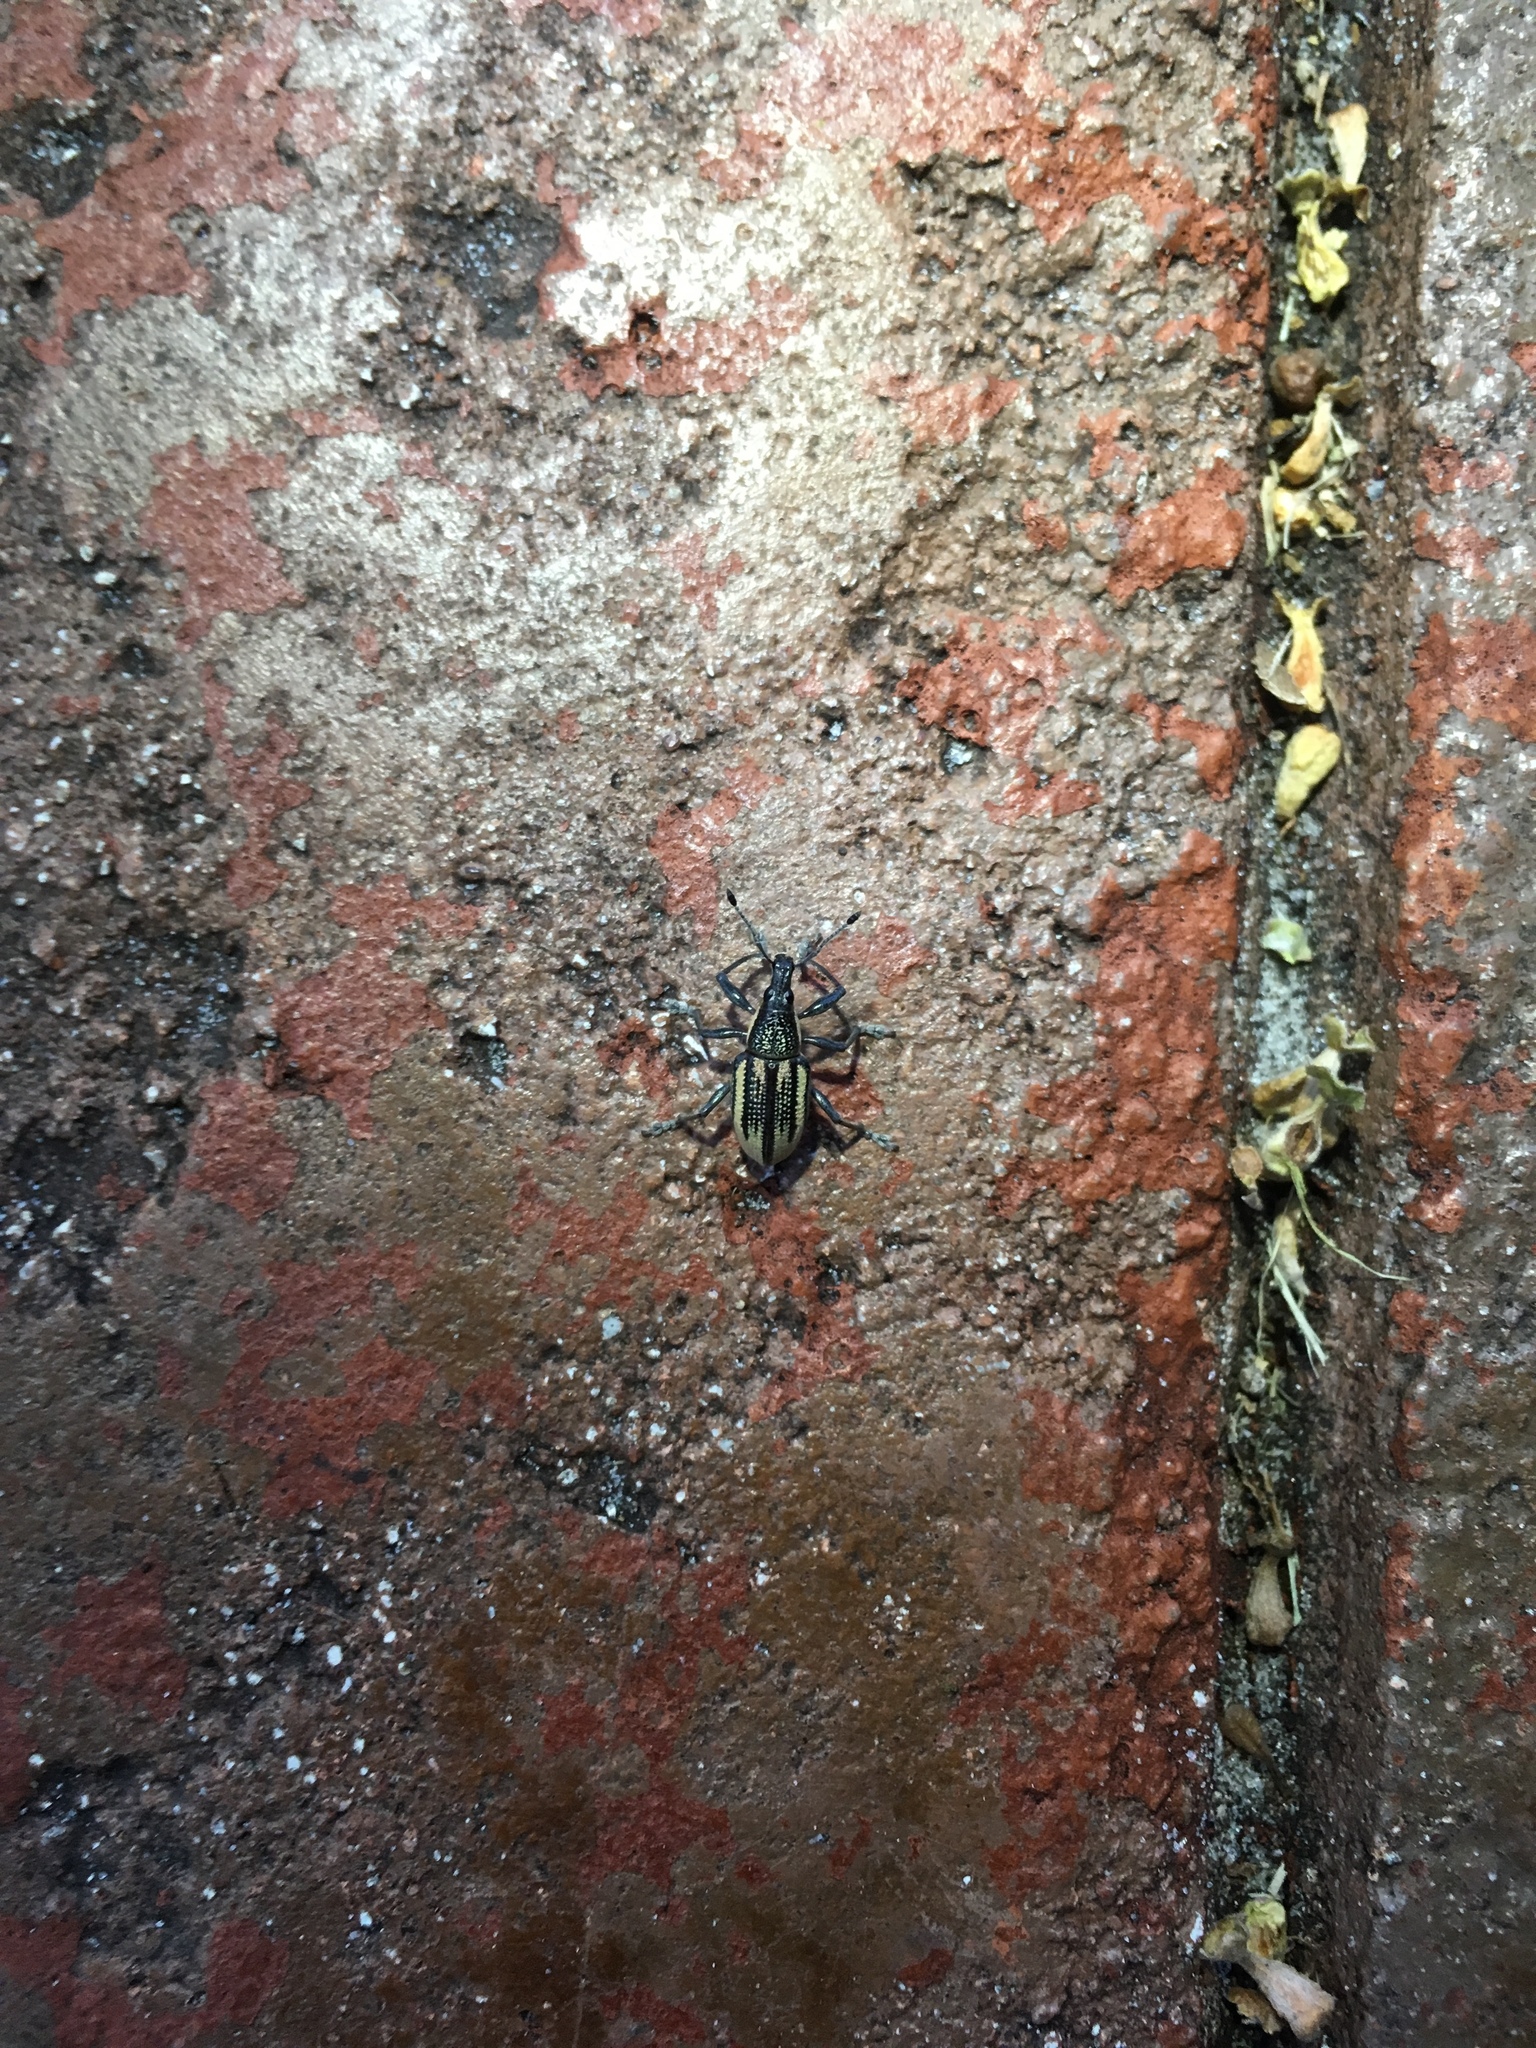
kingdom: Animalia
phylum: Arthropoda
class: Insecta
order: Coleoptera
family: Curculionidae
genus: Diaprepes
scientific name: Diaprepes abbreviatus
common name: Root weevil
